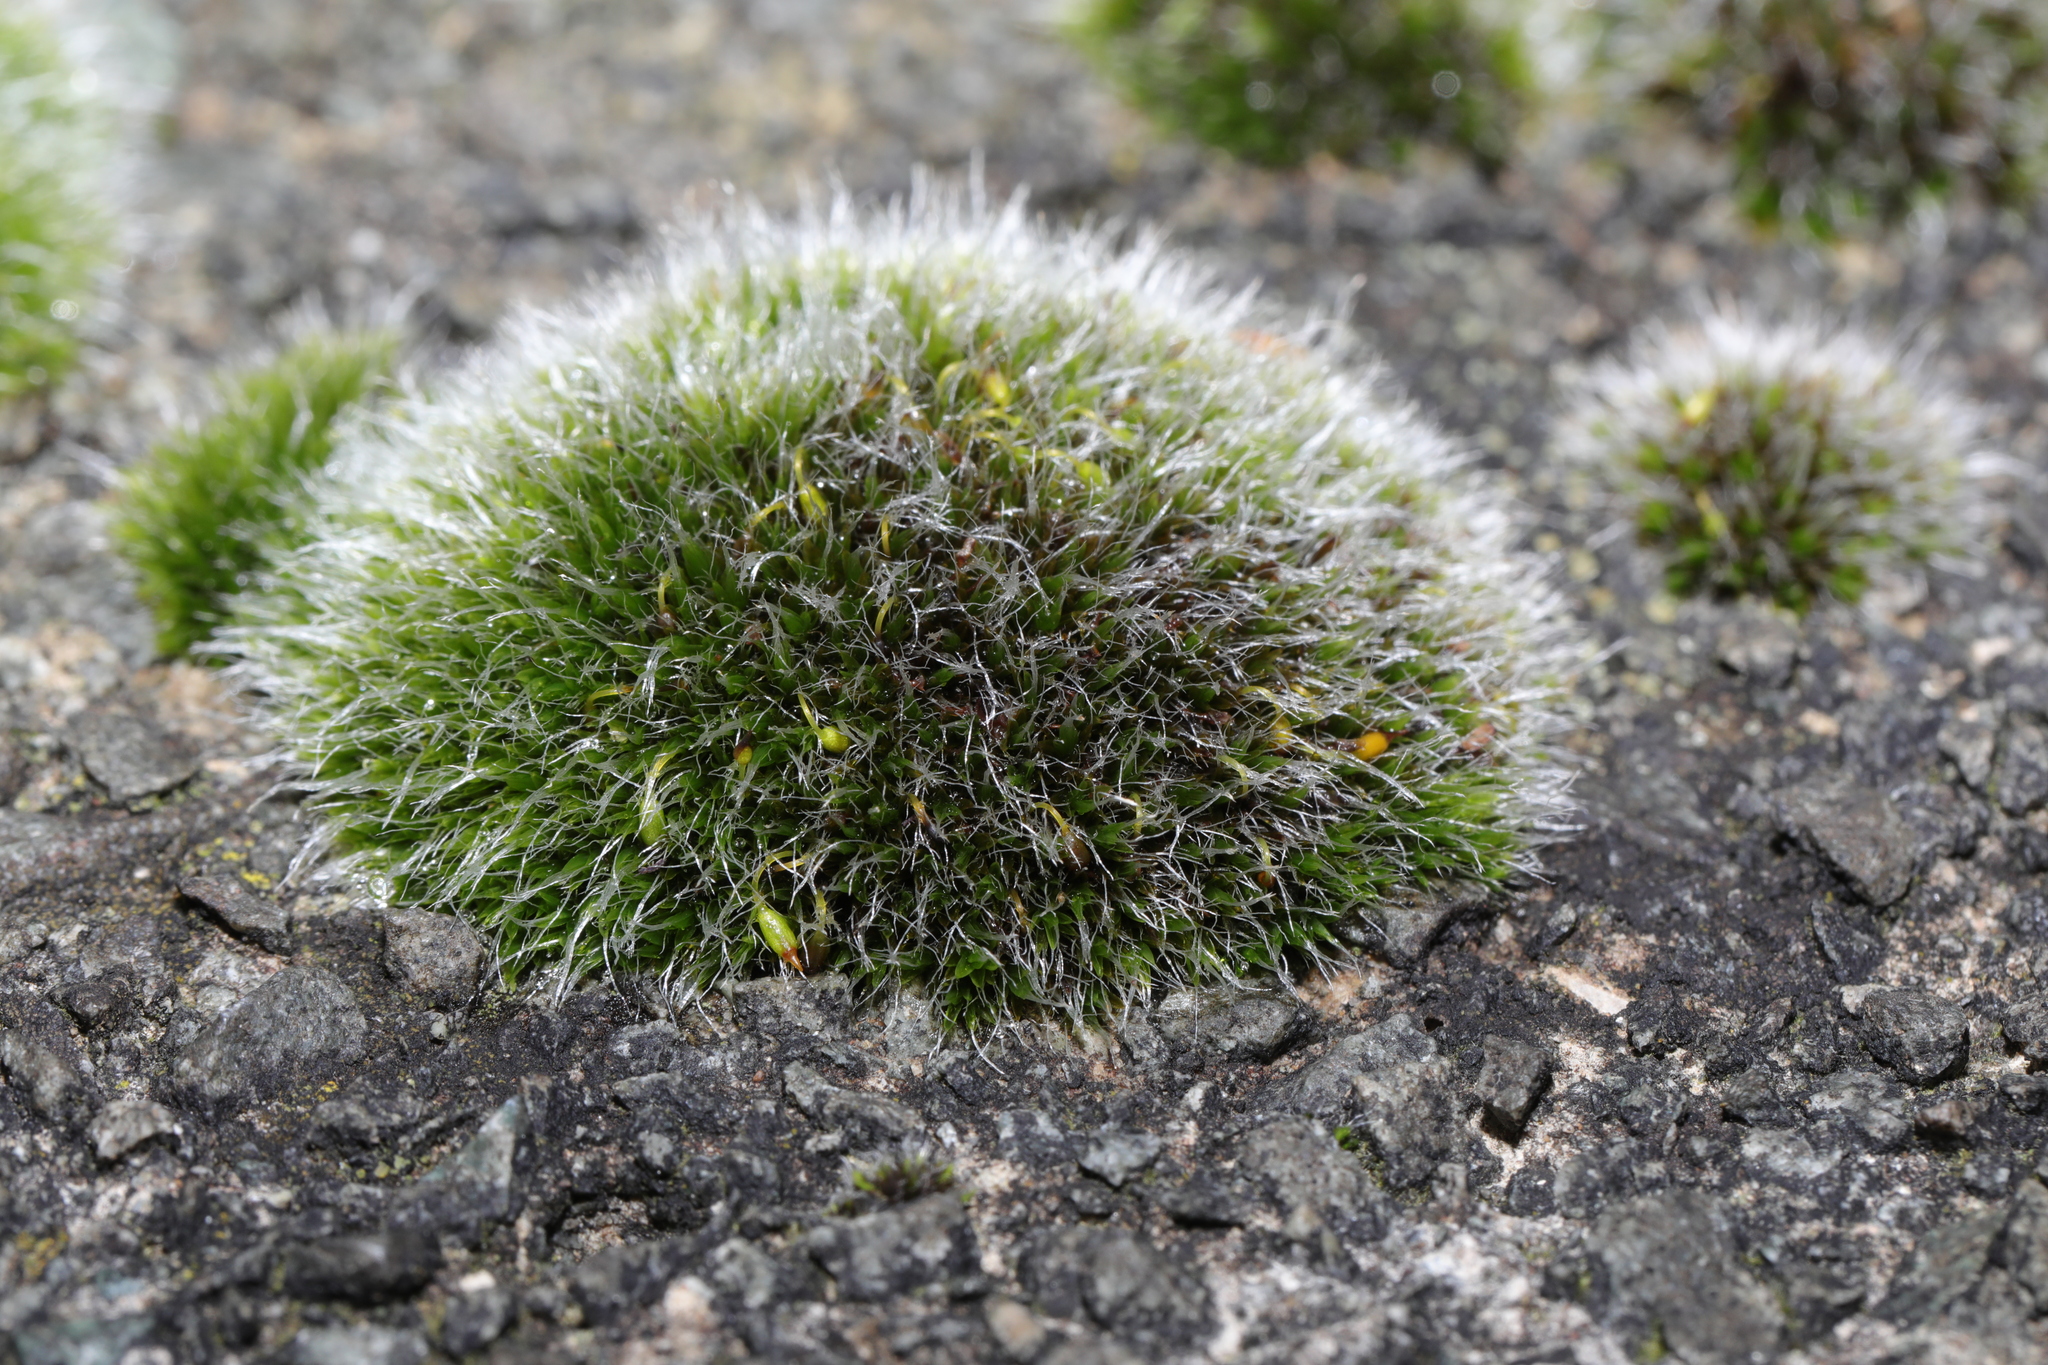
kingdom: Plantae
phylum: Bryophyta
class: Bryopsida
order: Grimmiales
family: Grimmiaceae
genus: Grimmia
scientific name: Grimmia pulvinata
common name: Grey-cushioned grimmia
